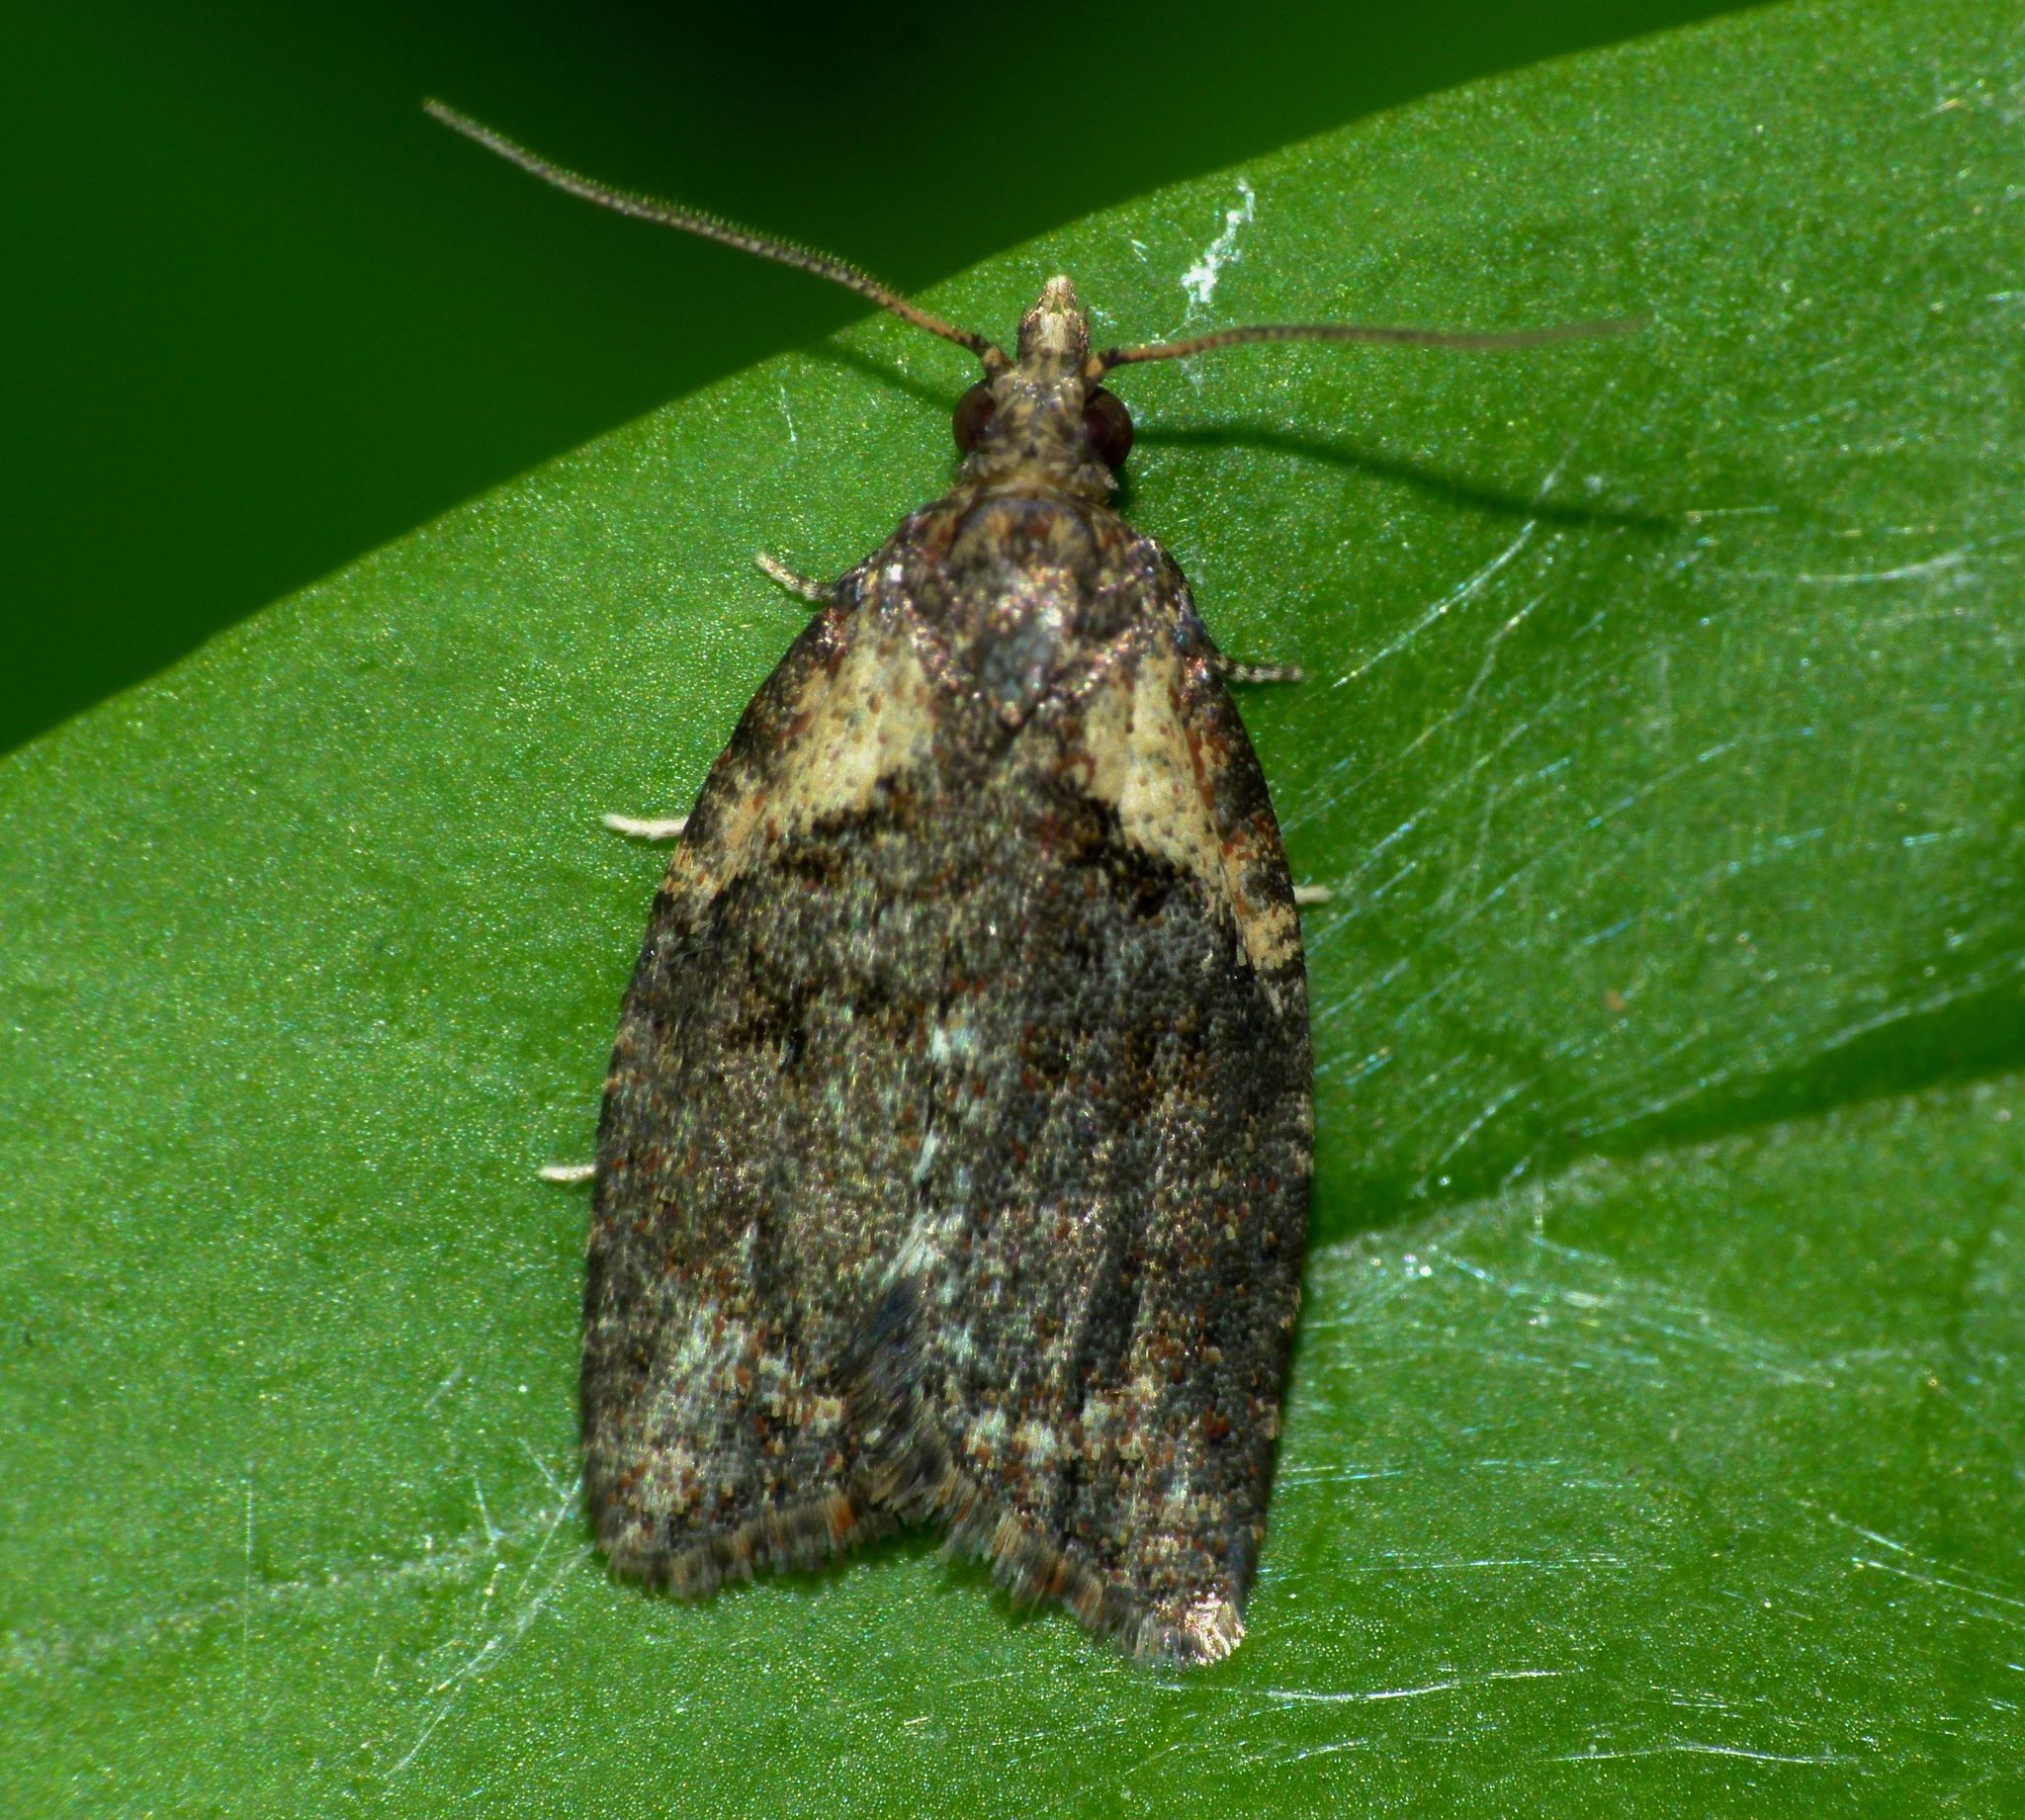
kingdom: Animalia
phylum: Arthropoda
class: Insecta
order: Lepidoptera
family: Tortricidae
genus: Capua
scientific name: Capua intractana
